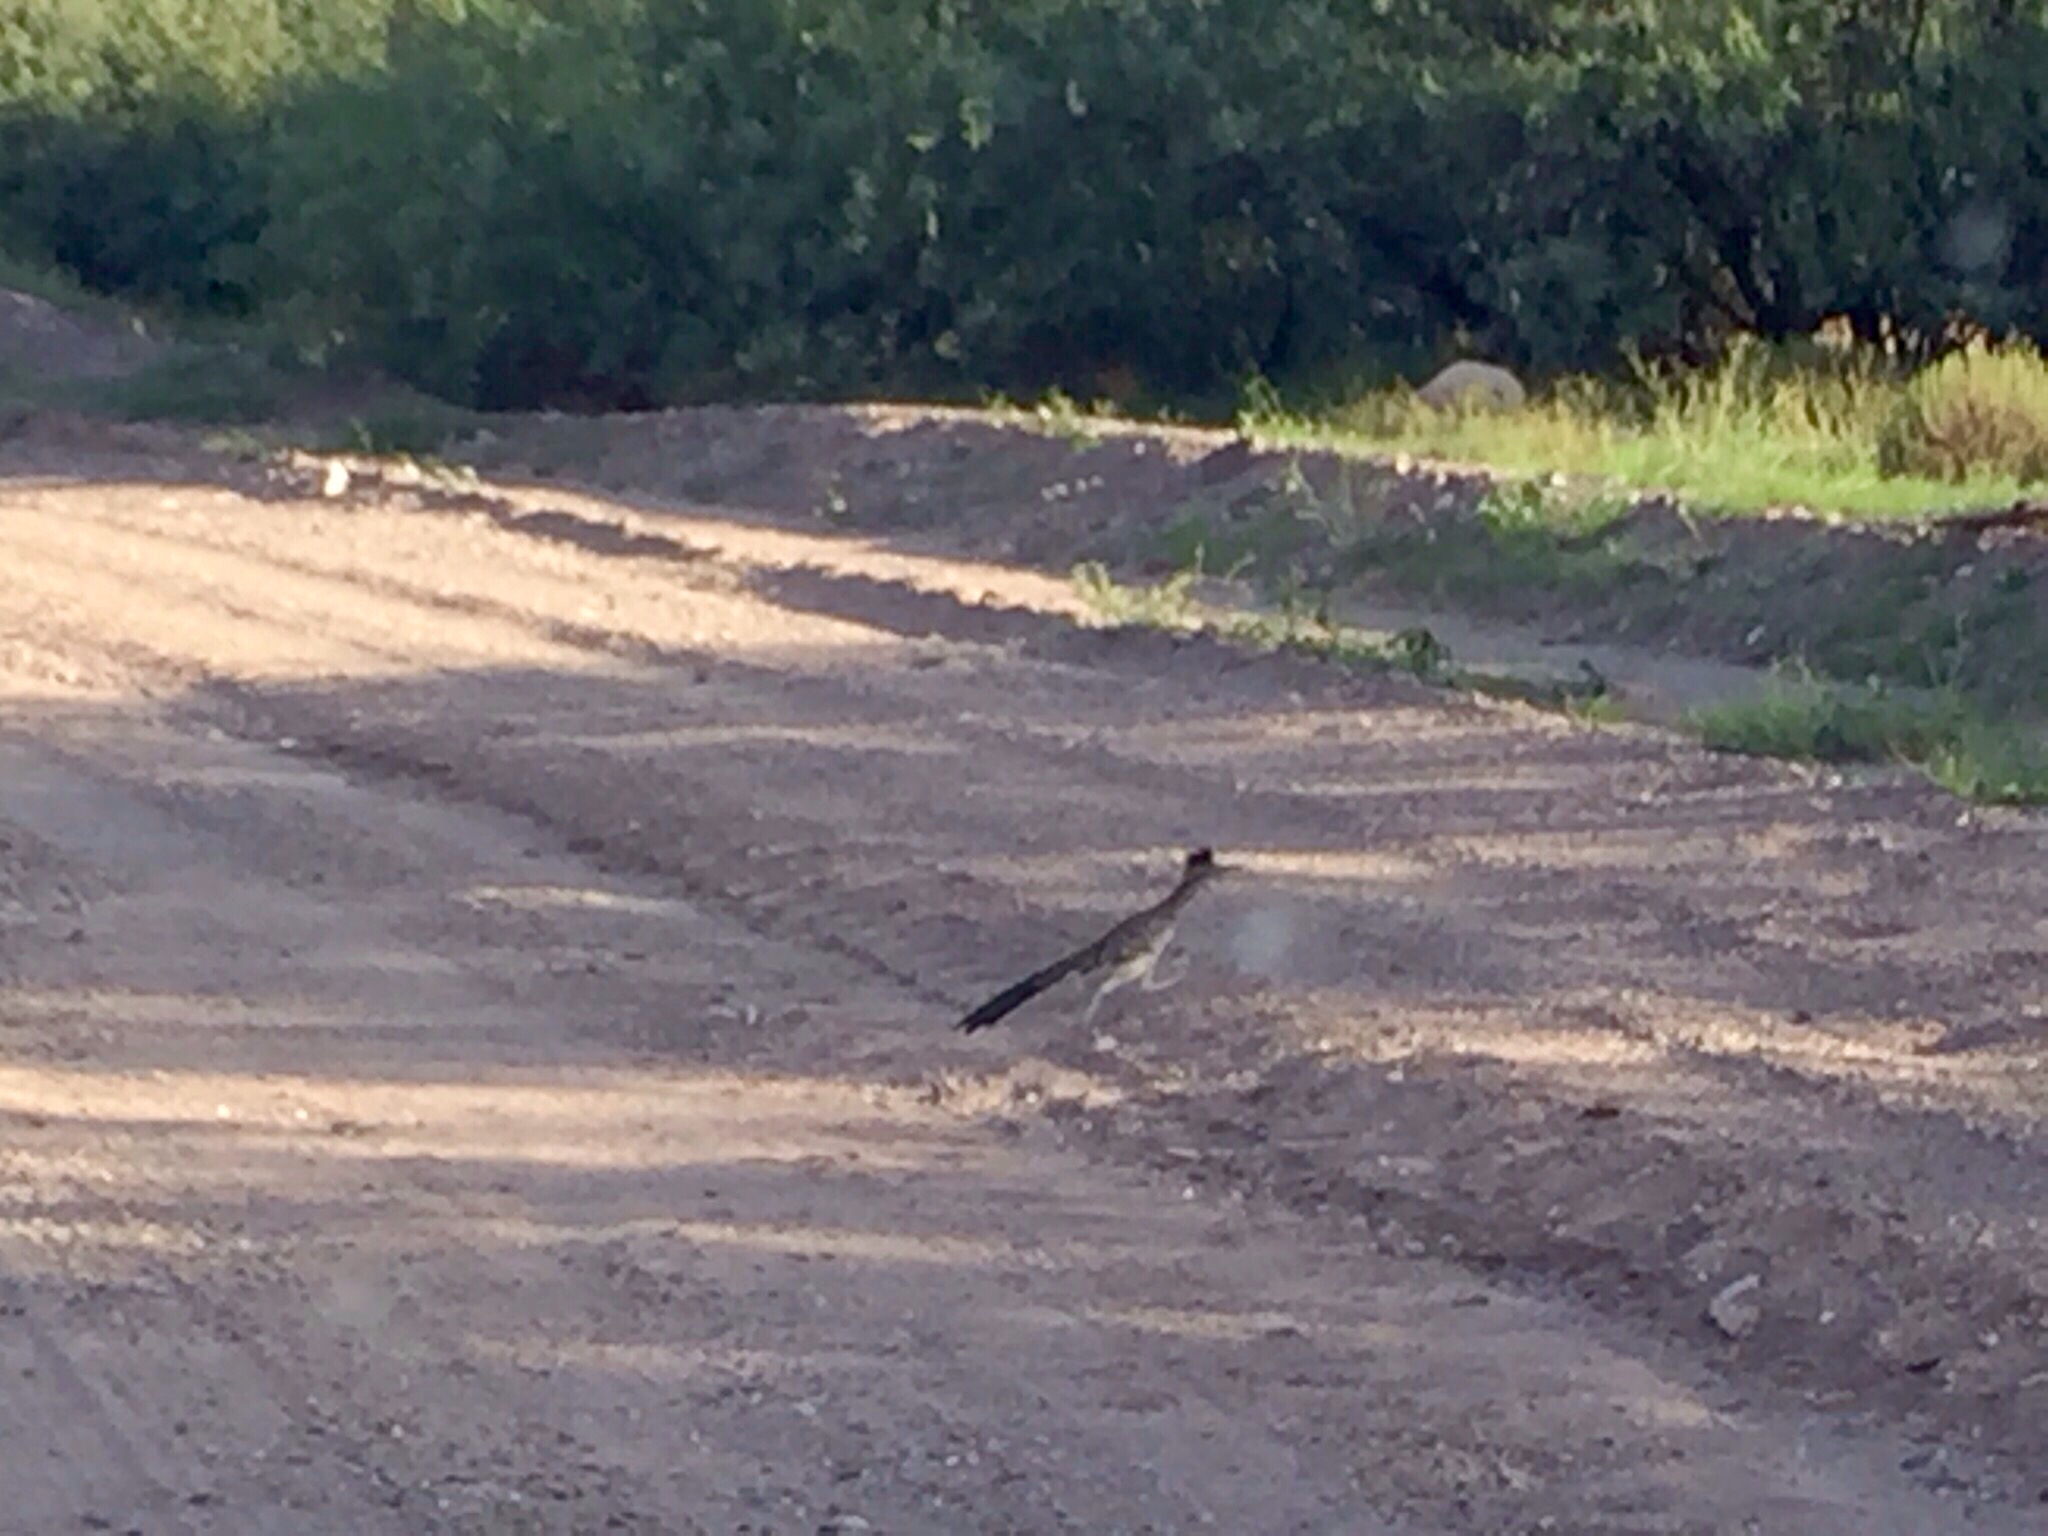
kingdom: Animalia
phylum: Chordata
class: Aves
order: Cuculiformes
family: Cuculidae
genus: Geococcyx
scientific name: Geococcyx californianus
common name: Greater roadrunner
